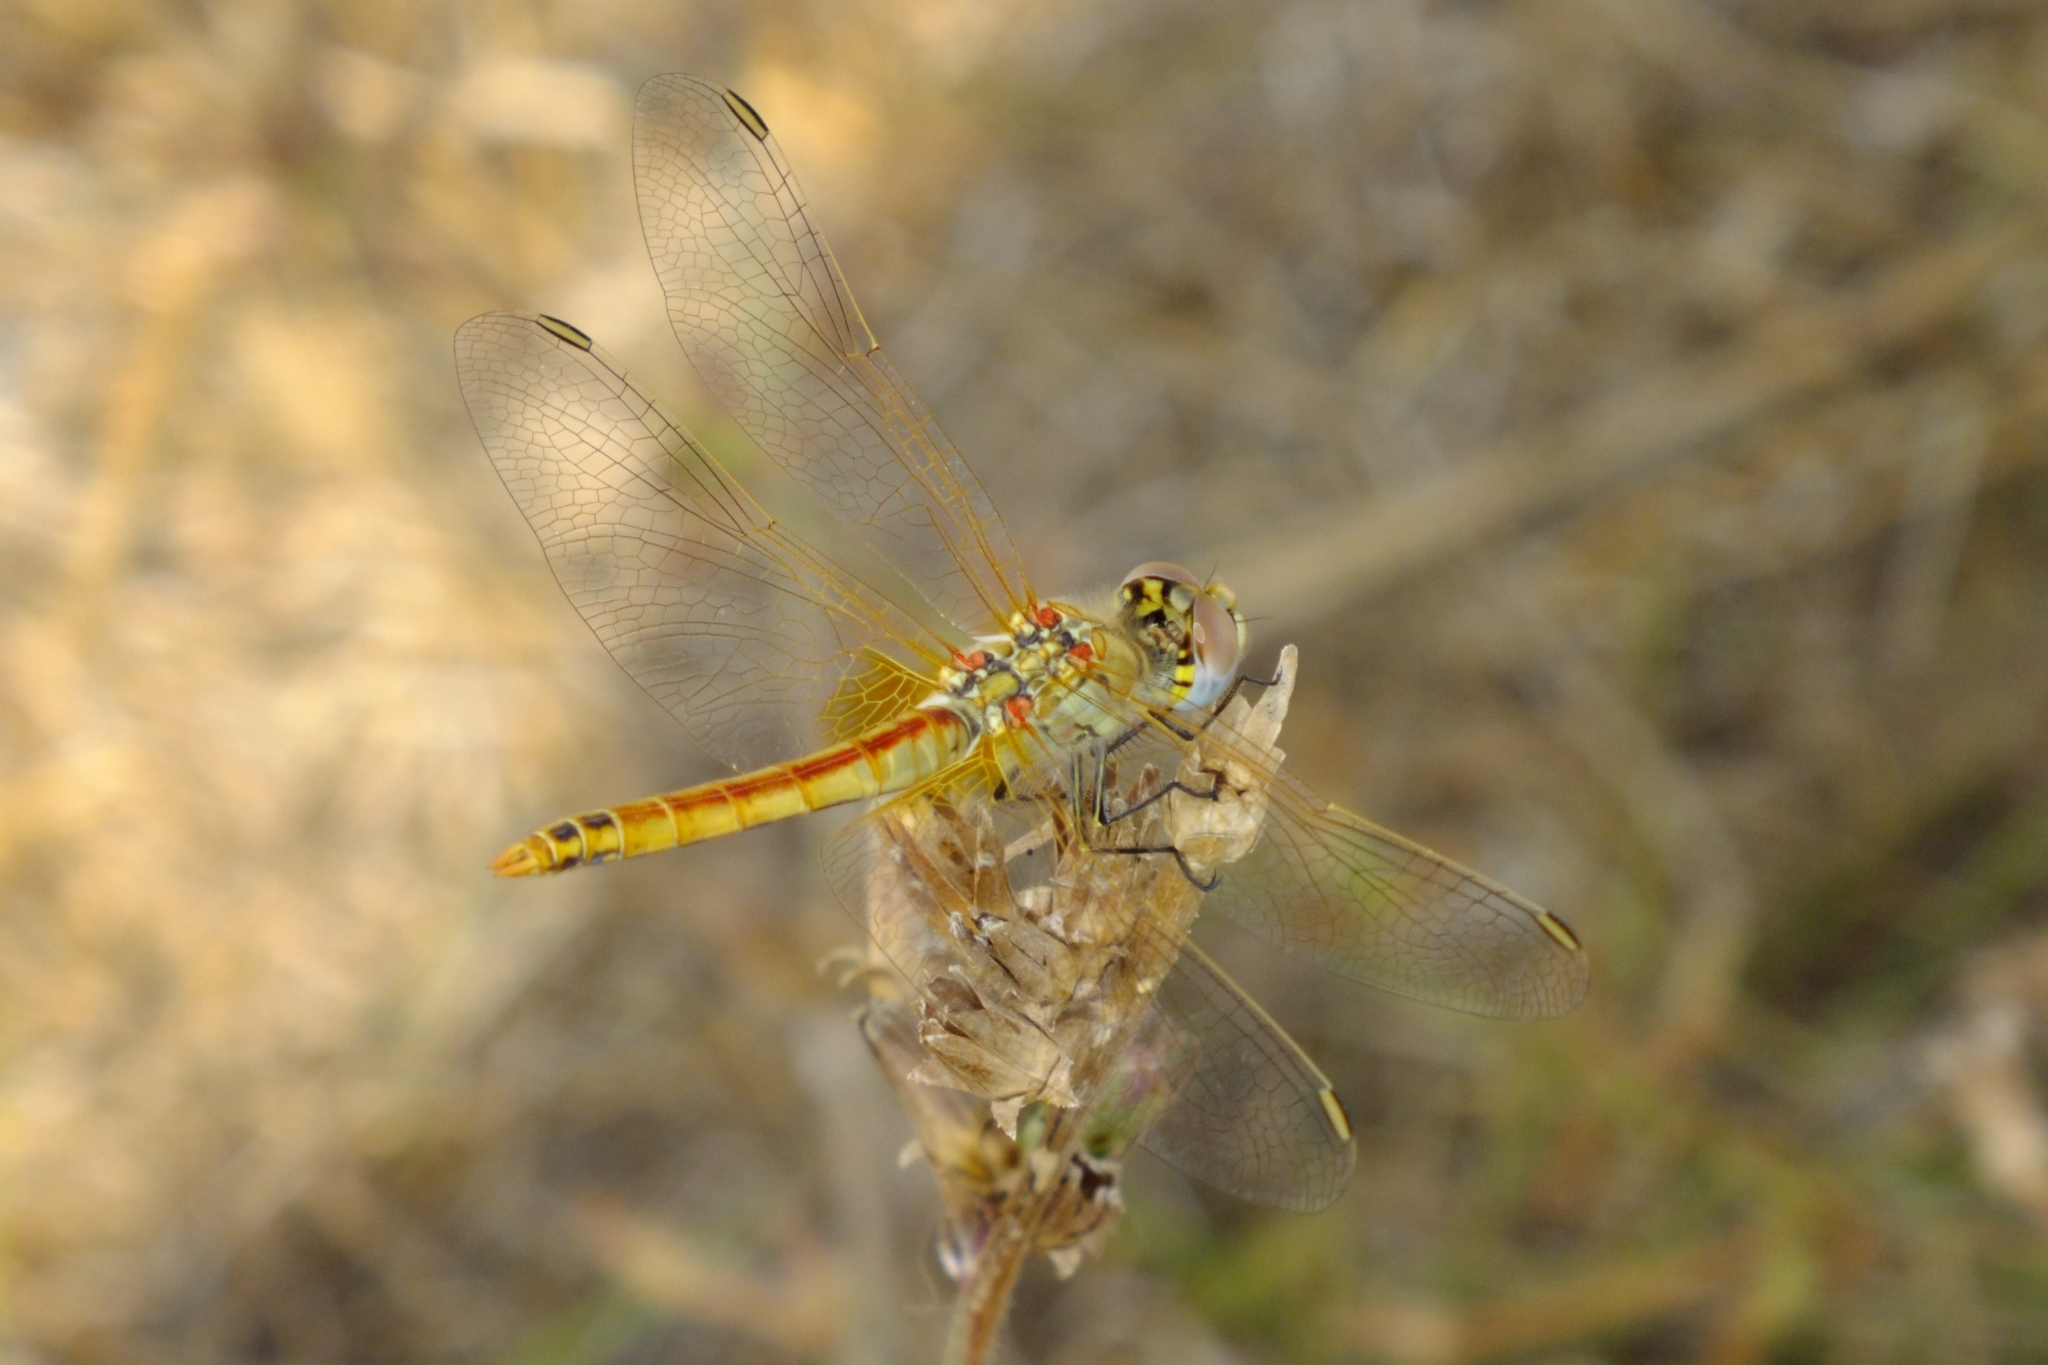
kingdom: Animalia
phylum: Arthropoda
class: Insecta
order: Odonata
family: Libellulidae
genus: Sympetrum
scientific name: Sympetrum fonscolombii
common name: Red-veined darter
